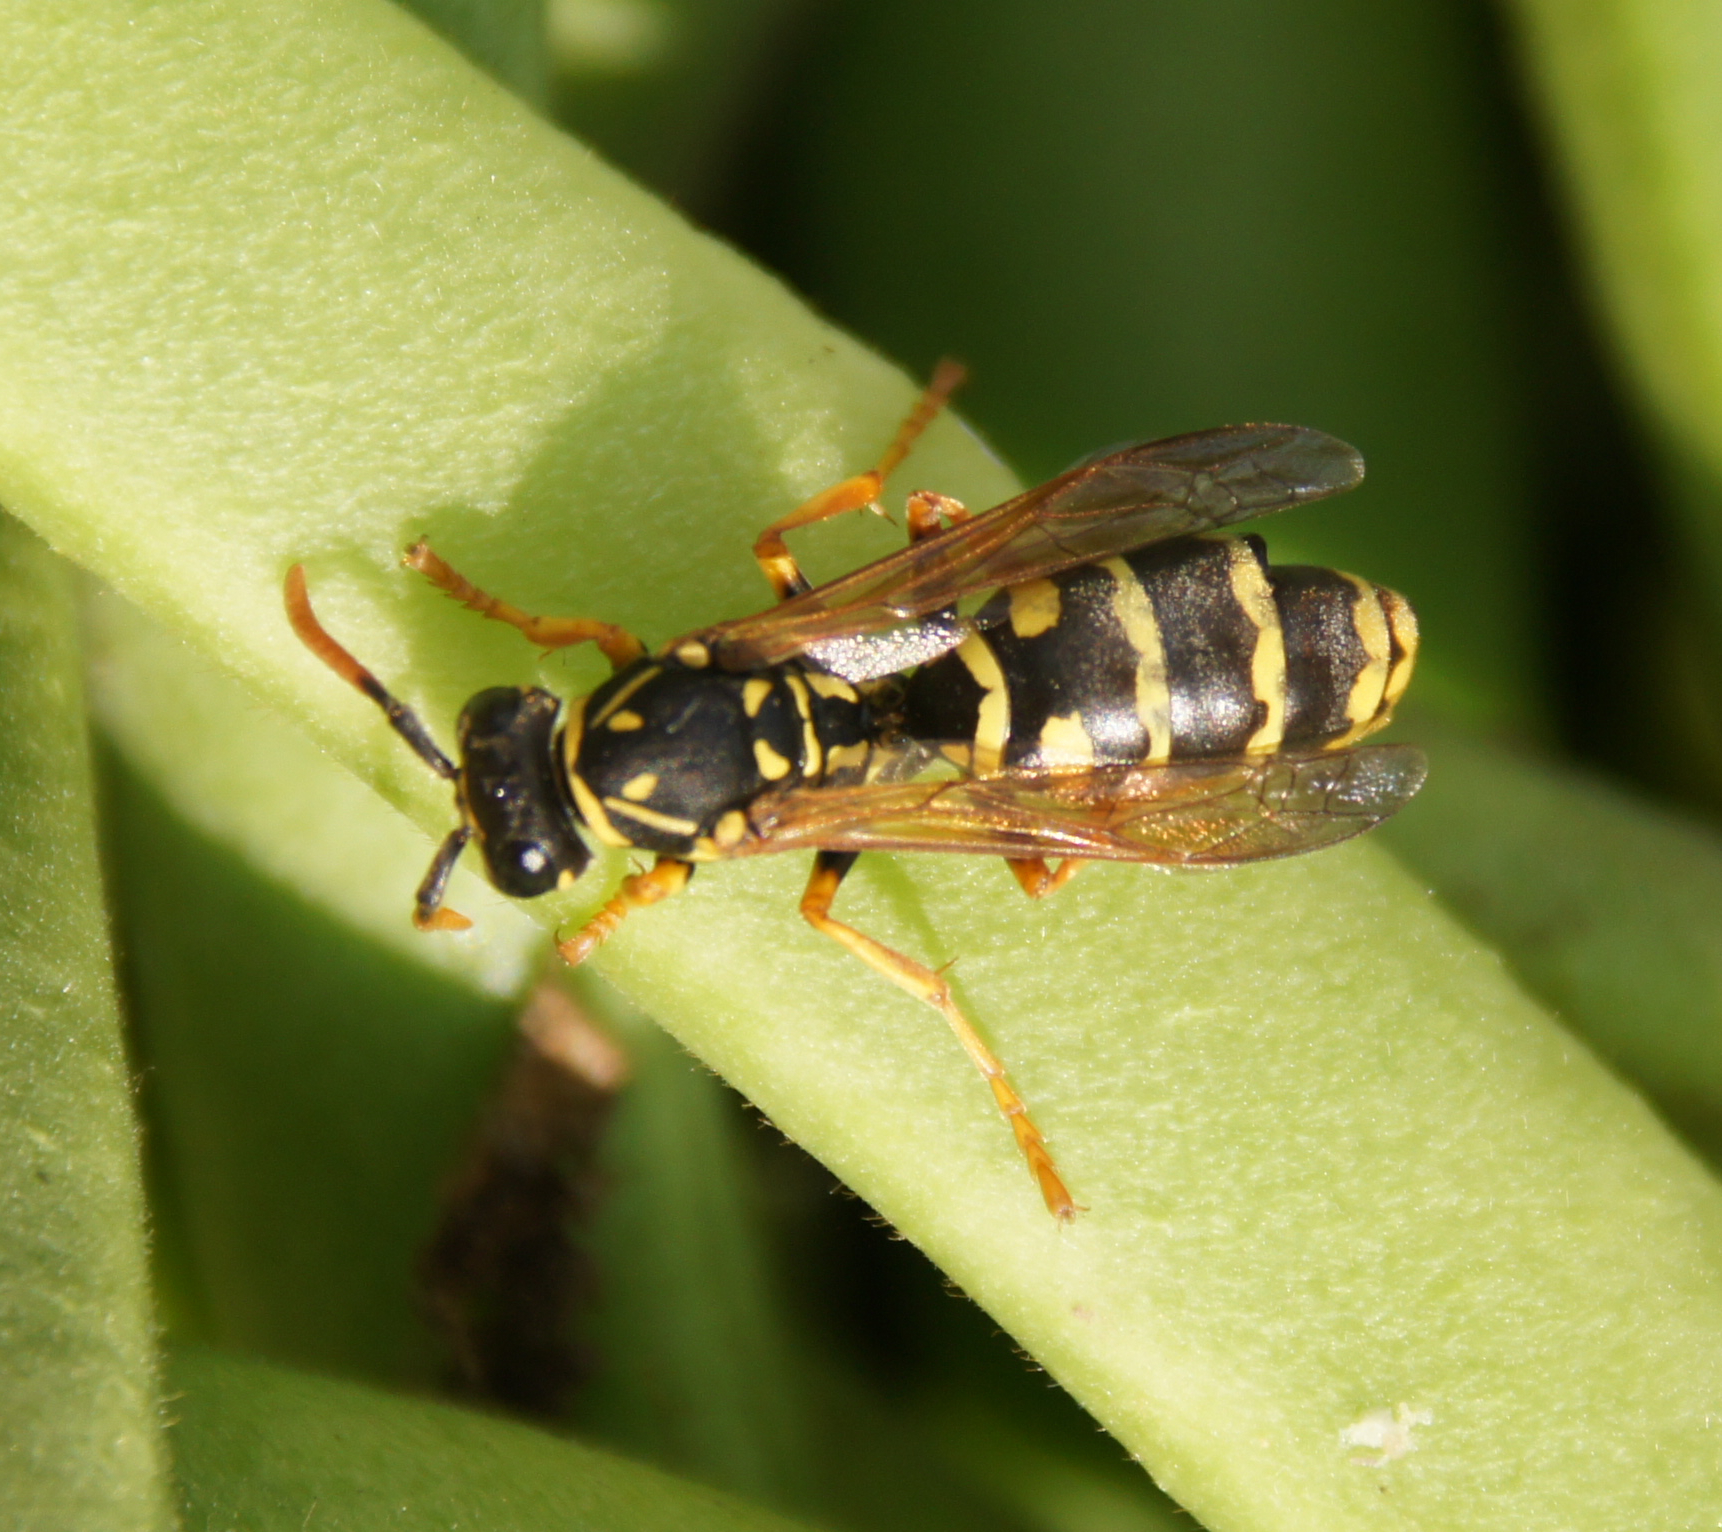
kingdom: Animalia
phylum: Arthropoda
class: Insecta
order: Hymenoptera
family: Eumenidae
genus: Polistes
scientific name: Polistes dominula
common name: Paper wasp
